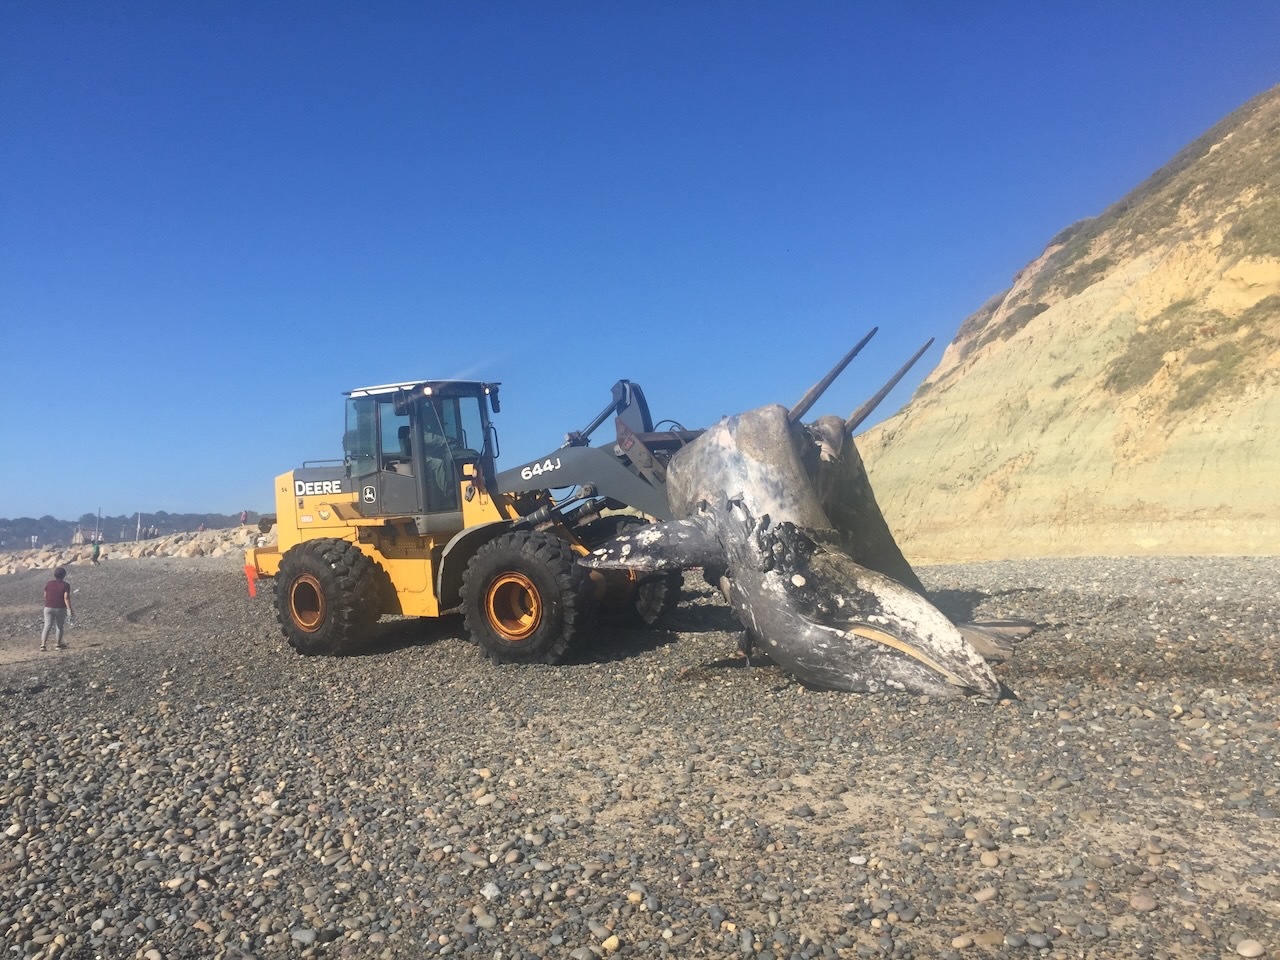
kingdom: Animalia
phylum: Chordata
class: Mammalia
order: Cetacea
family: Eschrichtiidae
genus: Eschrichtius
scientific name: Eschrichtius robustus
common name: Gray whale
